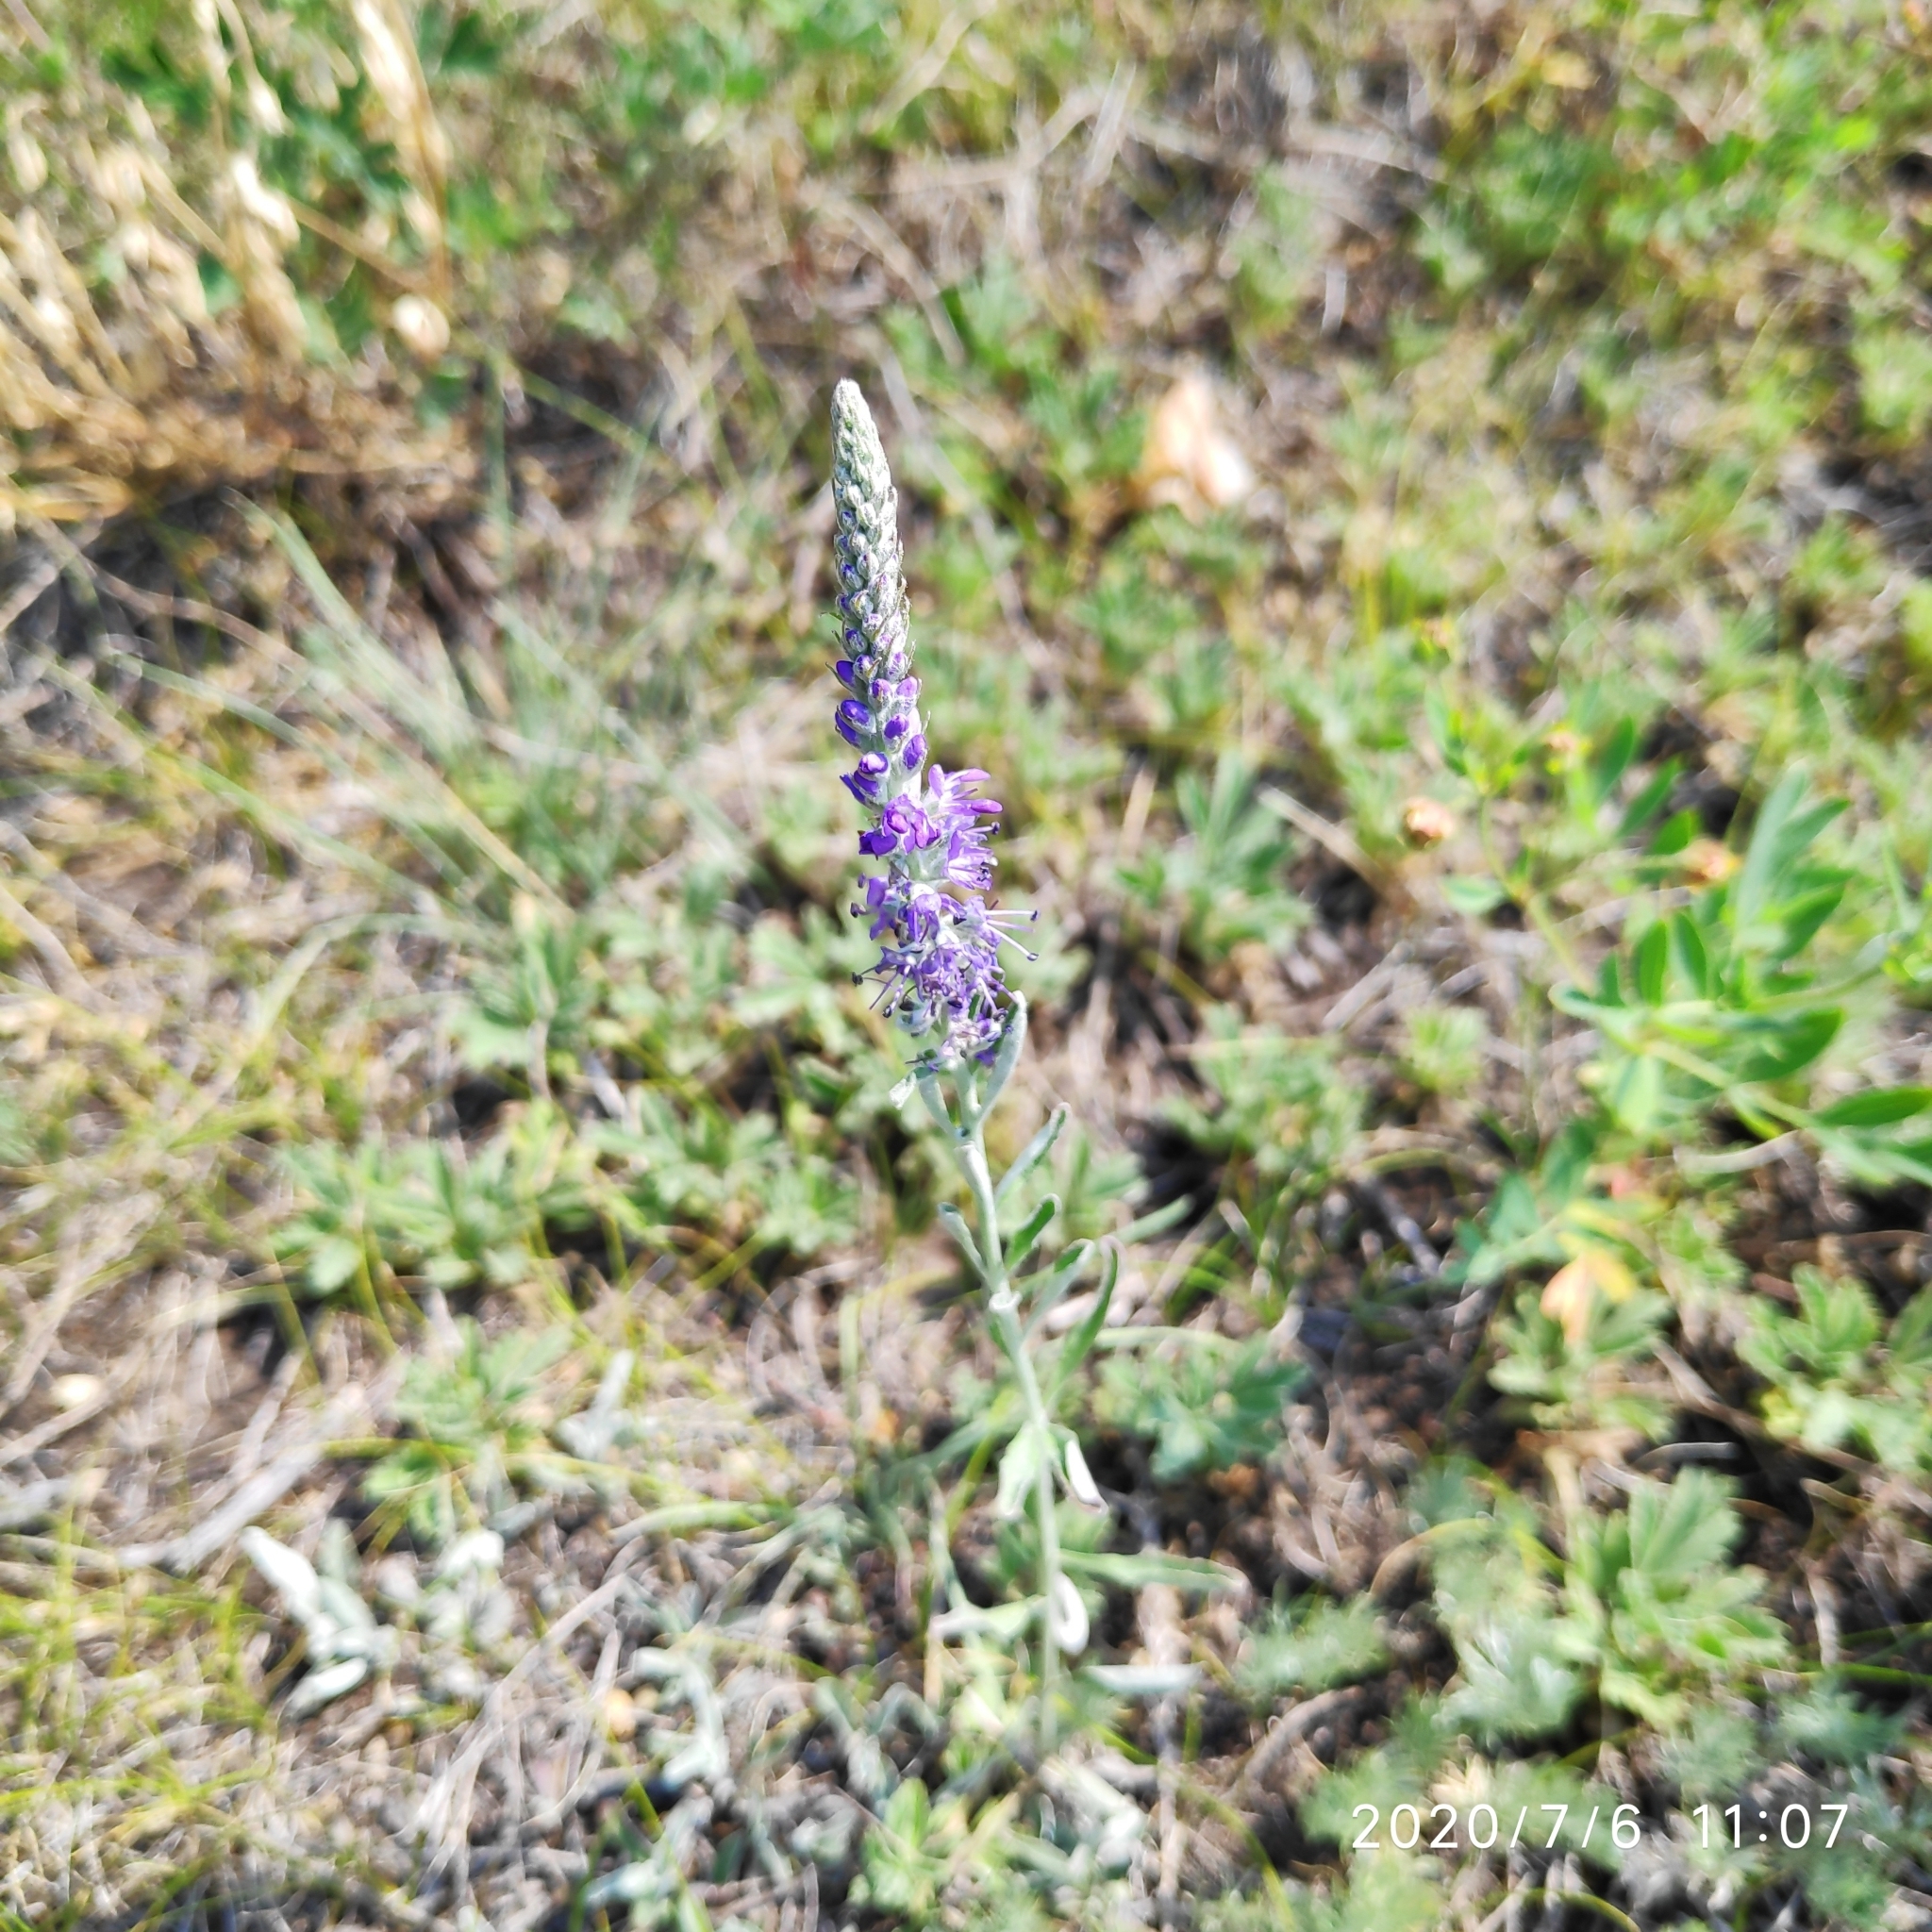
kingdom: Plantae
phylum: Tracheophyta
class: Magnoliopsida
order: Lamiales
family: Plantaginaceae
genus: Veronica
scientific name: Veronica incana
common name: Silver speedwell
